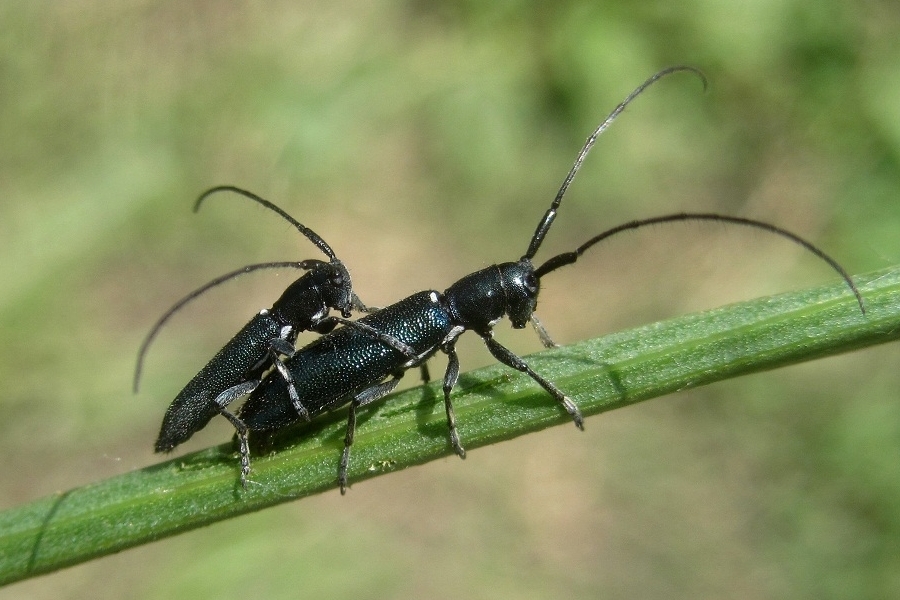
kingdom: Animalia
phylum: Arthropoda
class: Insecta
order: Coleoptera
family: Cerambycidae
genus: Agapanthiola
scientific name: Agapanthiola leucaspis
